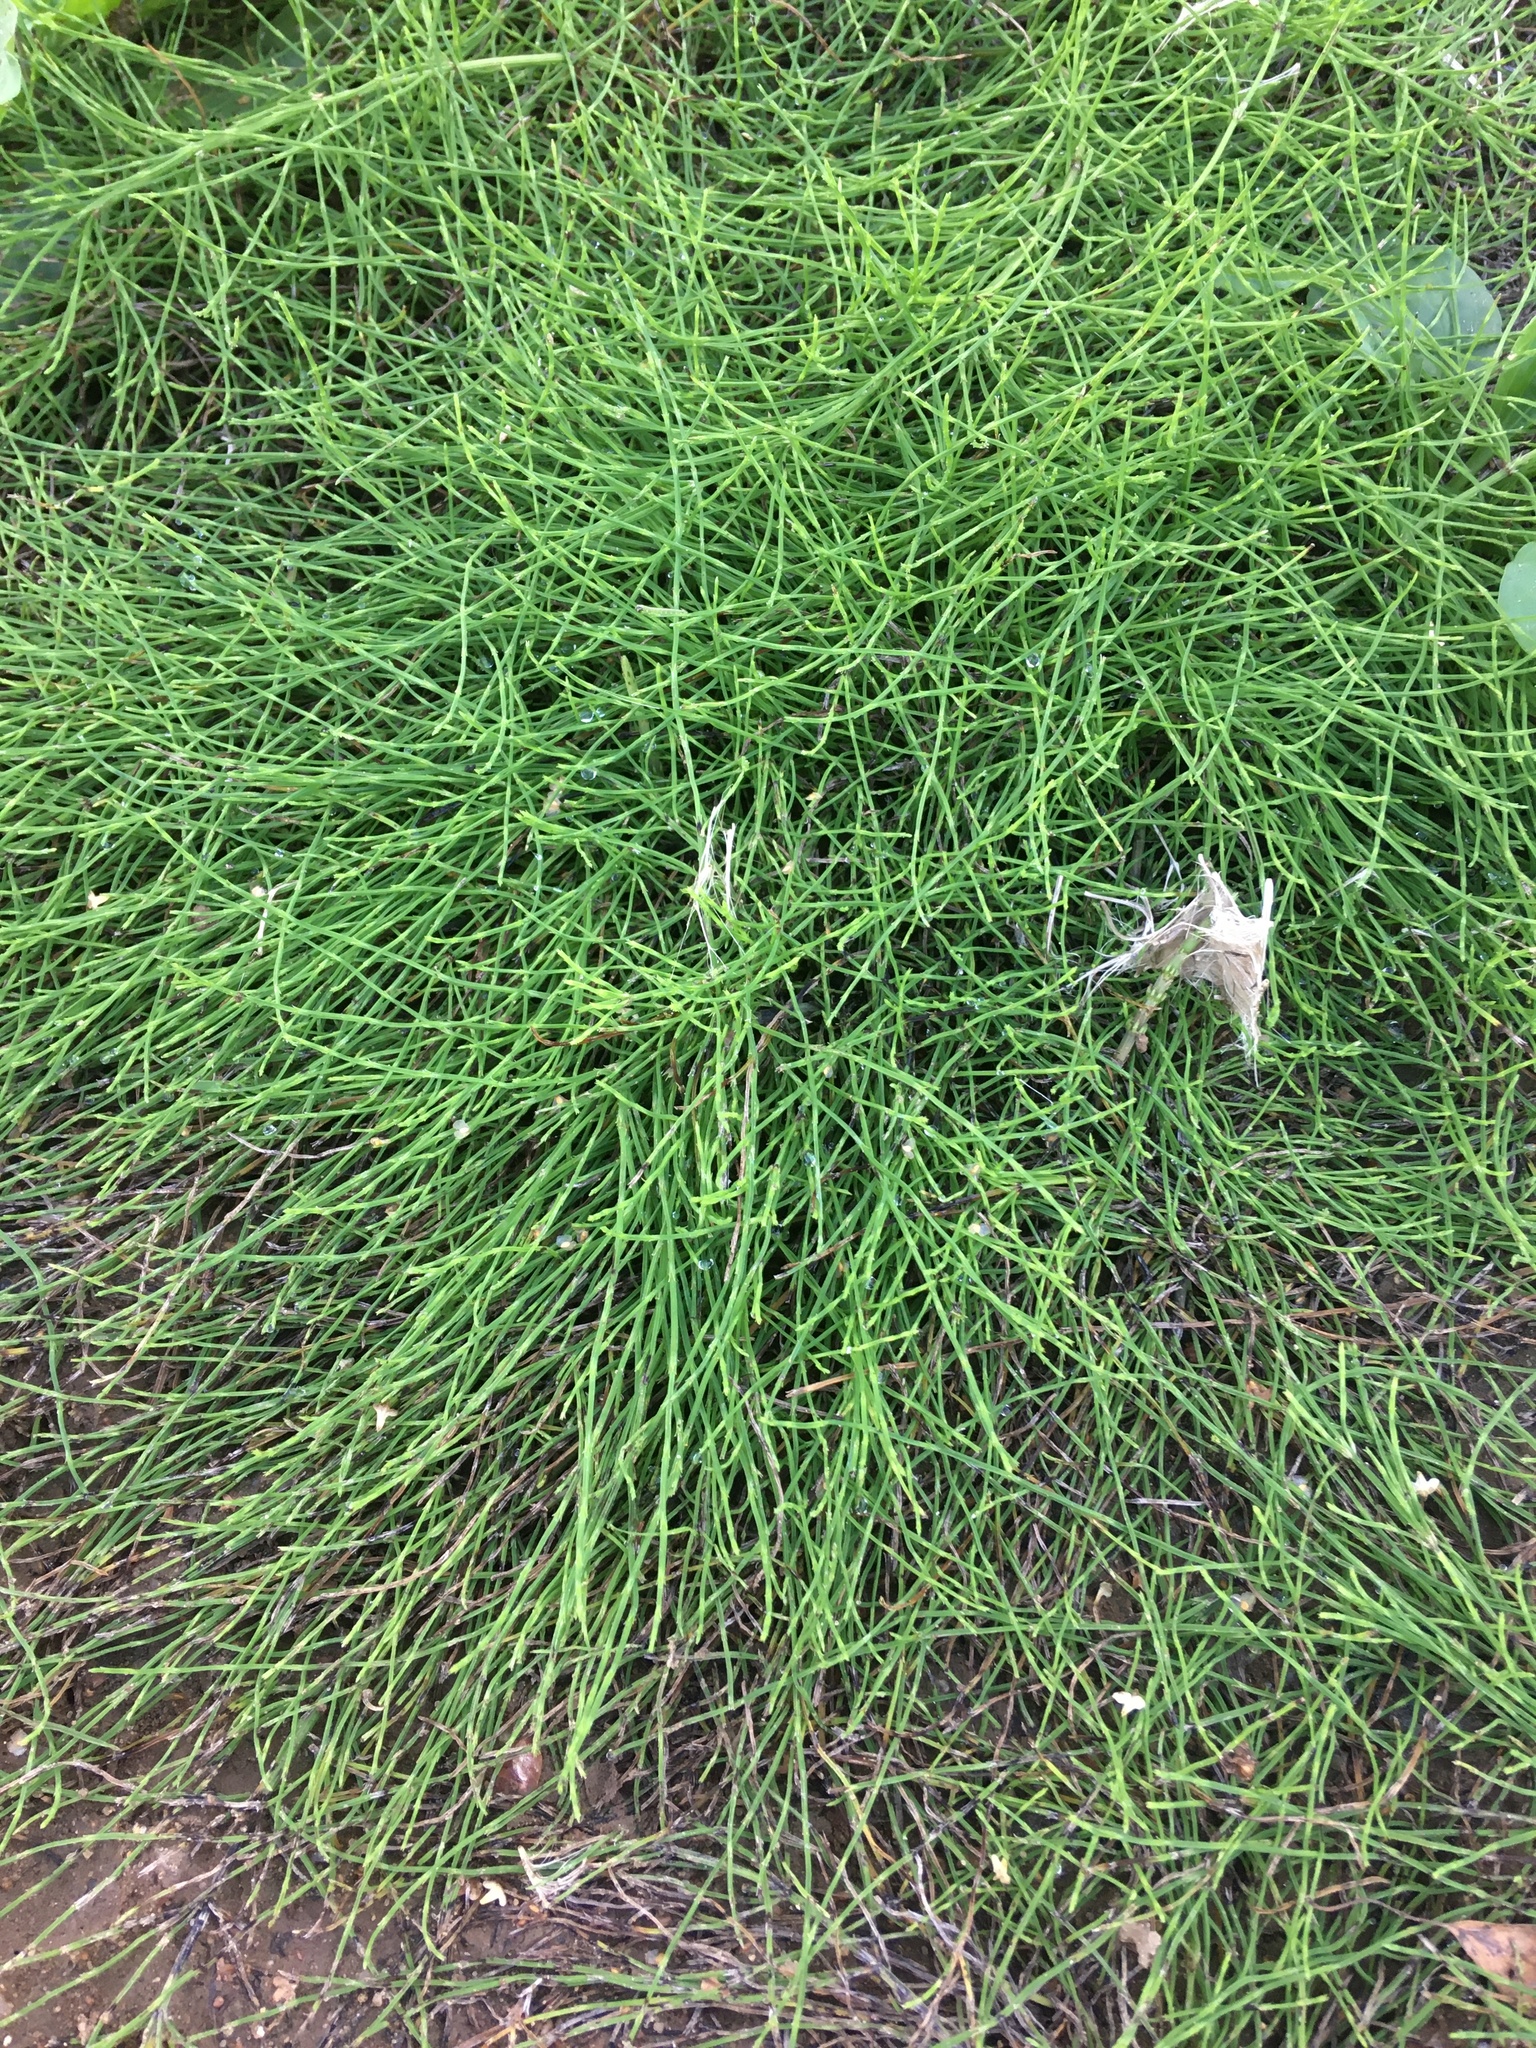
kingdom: Plantae
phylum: Tracheophyta
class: Polypodiopsida
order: Equisetales
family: Equisetaceae
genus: Equisetum
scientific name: Equisetum arvense
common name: Field horsetail
